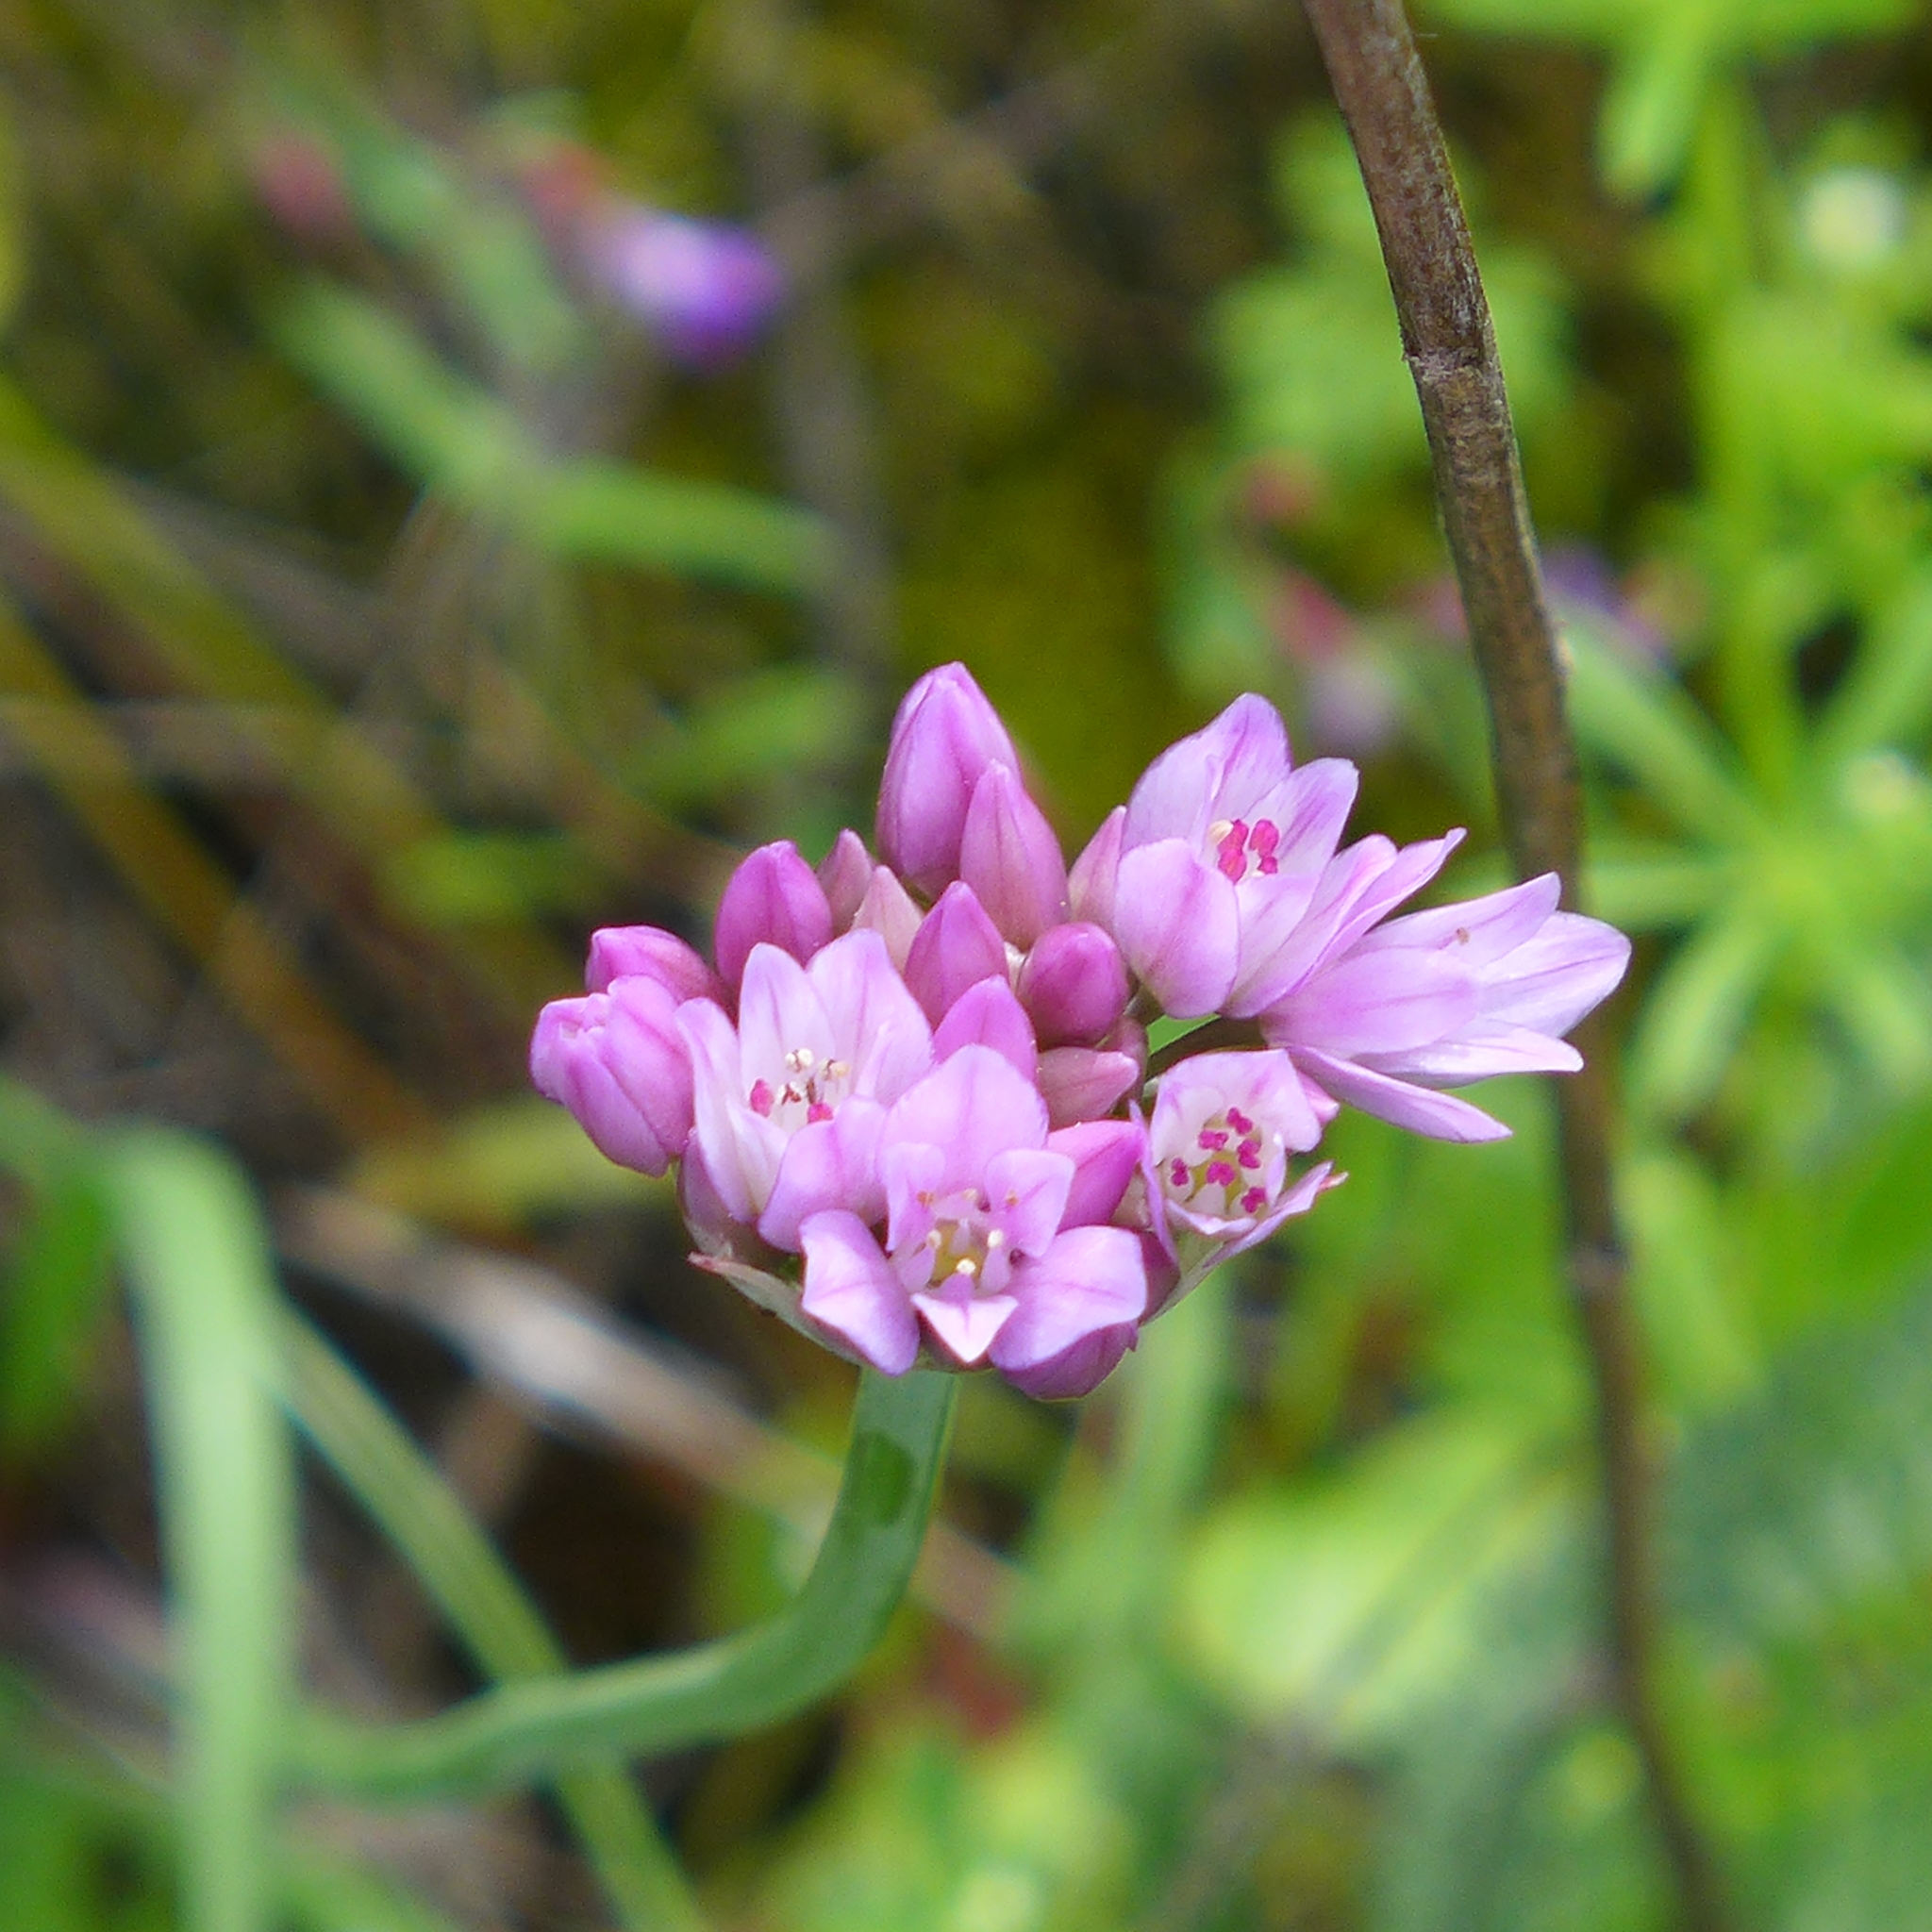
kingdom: Plantae
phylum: Tracheophyta
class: Liliopsida
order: Asparagales
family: Amaryllidaceae
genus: Allium
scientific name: Allium serra
